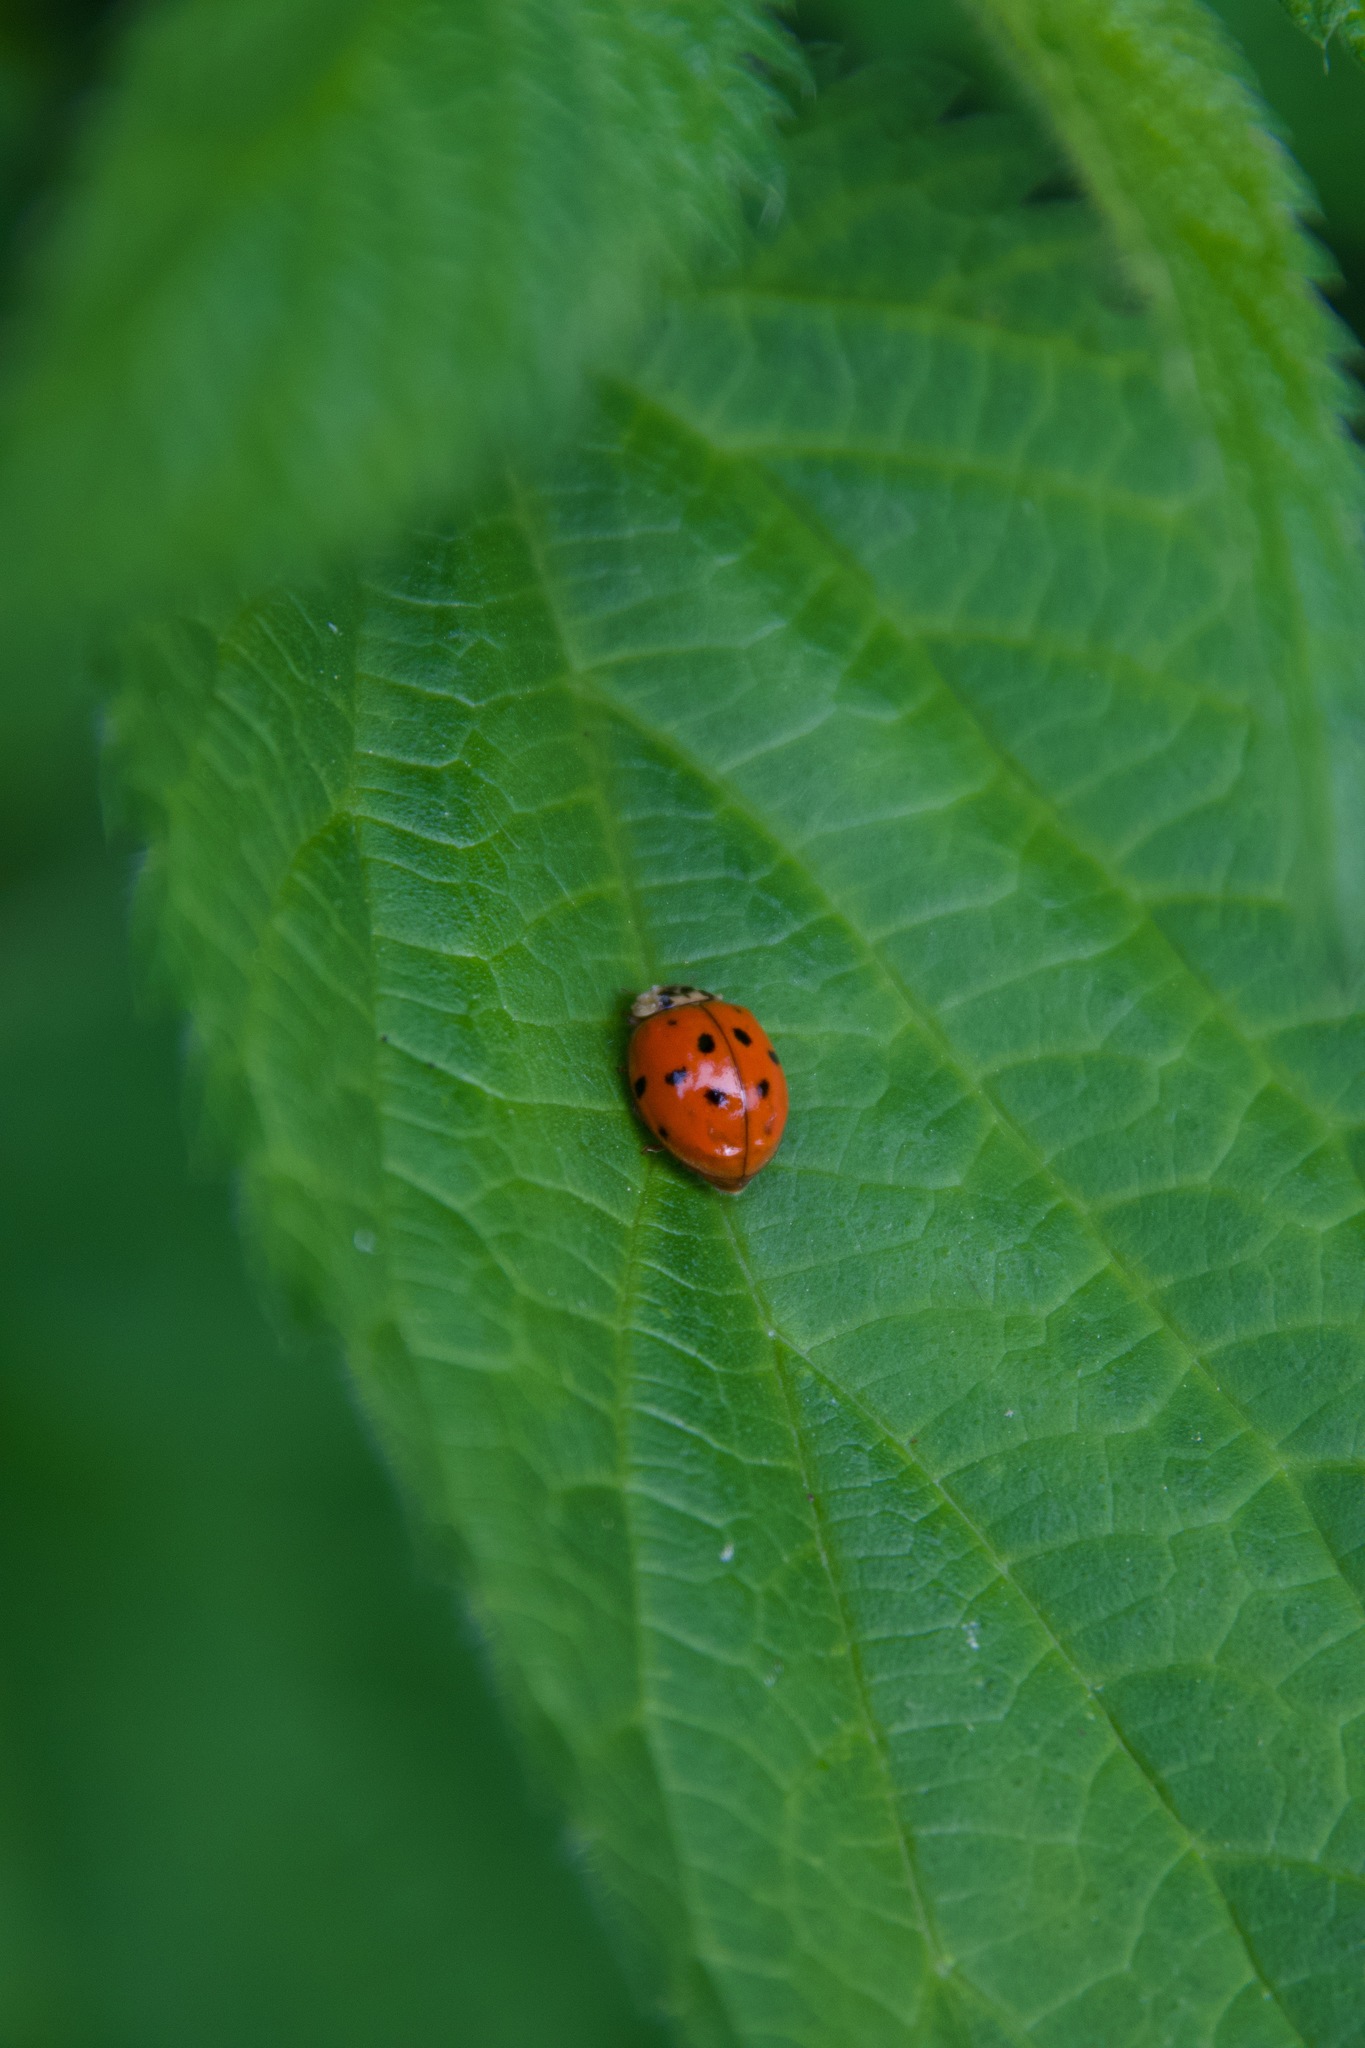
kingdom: Animalia
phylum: Arthropoda
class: Insecta
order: Coleoptera
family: Coccinellidae
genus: Harmonia
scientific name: Harmonia axyridis
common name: Harlequin ladybird
